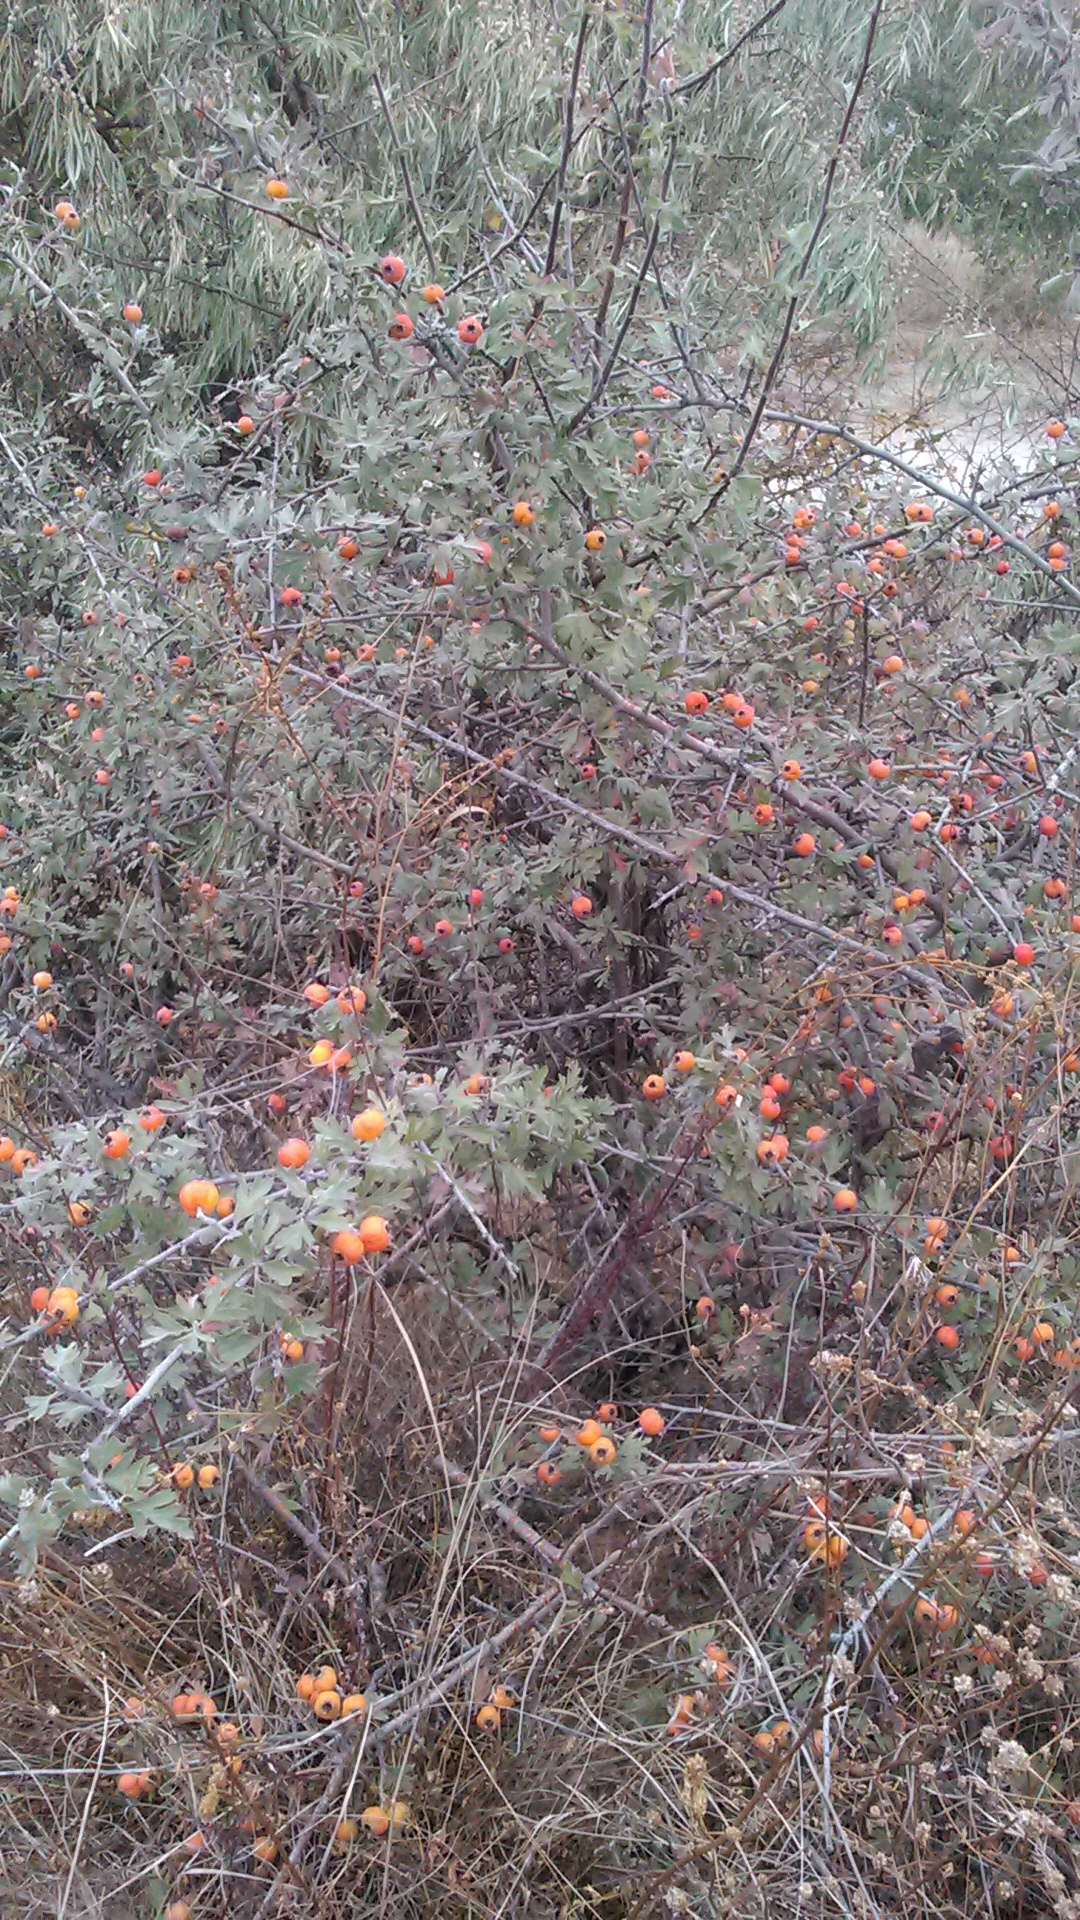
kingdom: Plantae
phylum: Tracheophyta
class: Magnoliopsida
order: Rosales
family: Rosaceae
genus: Crataegus
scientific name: Crataegus orientalis
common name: Oriental hawthorn
